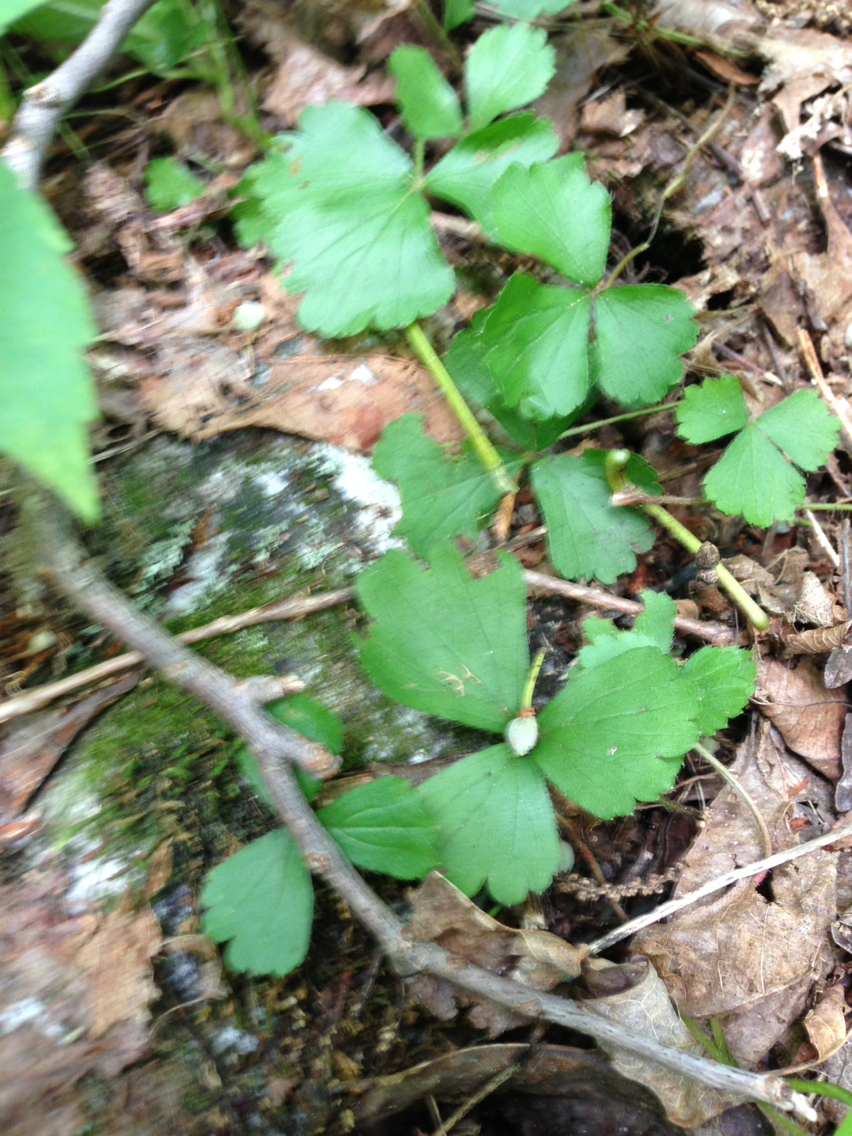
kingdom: Plantae
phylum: Tracheophyta
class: Magnoliopsida
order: Rosales
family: Rosaceae
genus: Geum
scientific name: Geum fragarioides
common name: Appalachian barren strawberry
